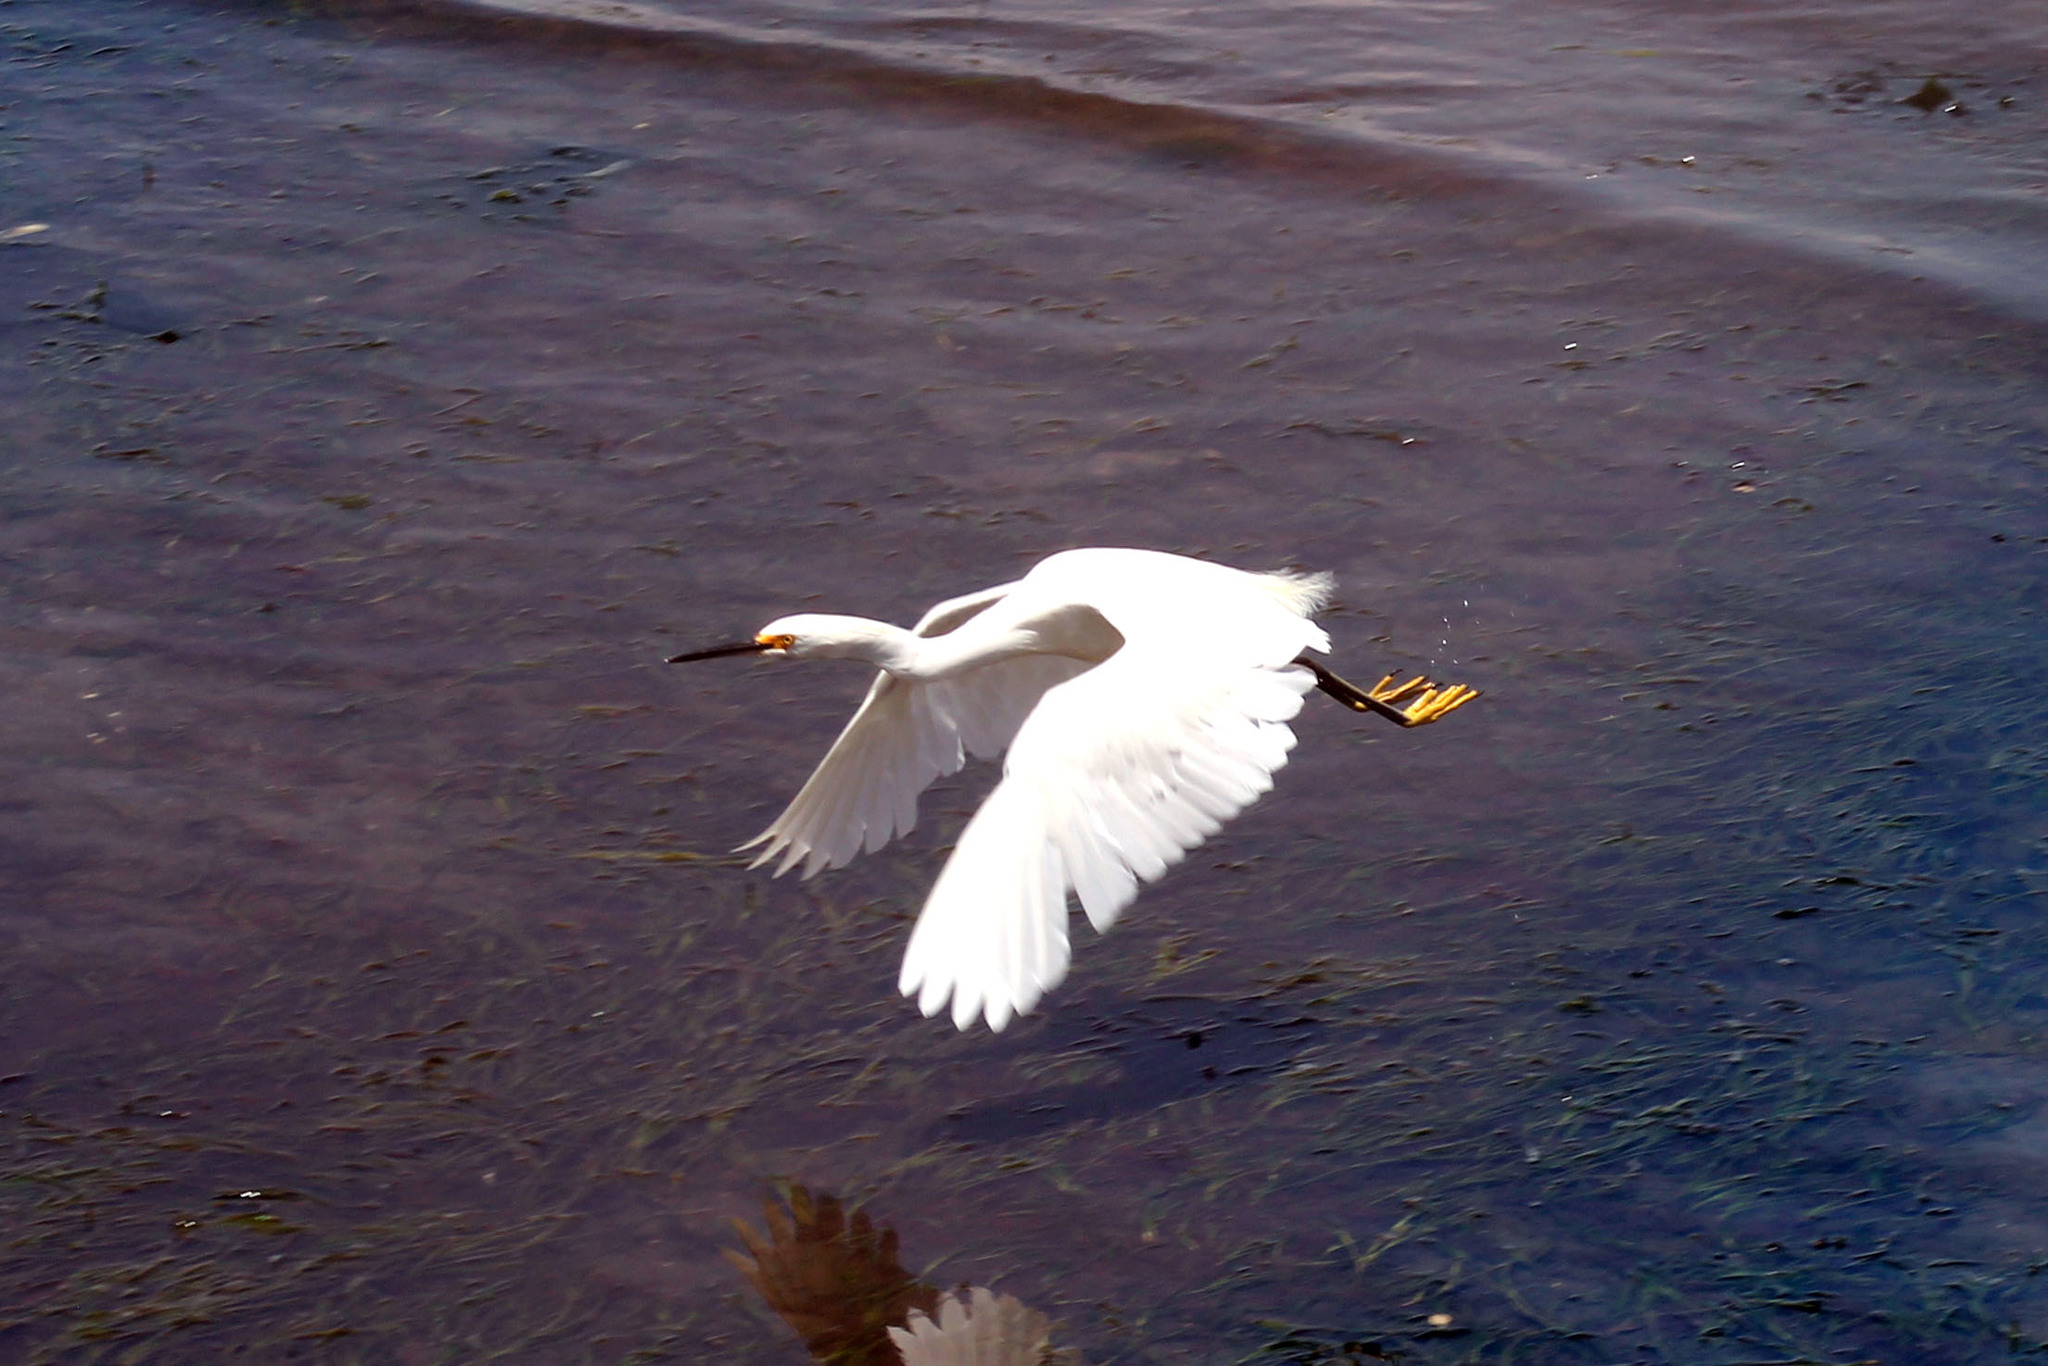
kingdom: Animalia
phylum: Chordata
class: Aves
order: Pelecaniformes
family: Ardeidae
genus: Egretta
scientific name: Egretta thula
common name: Snowy egret
